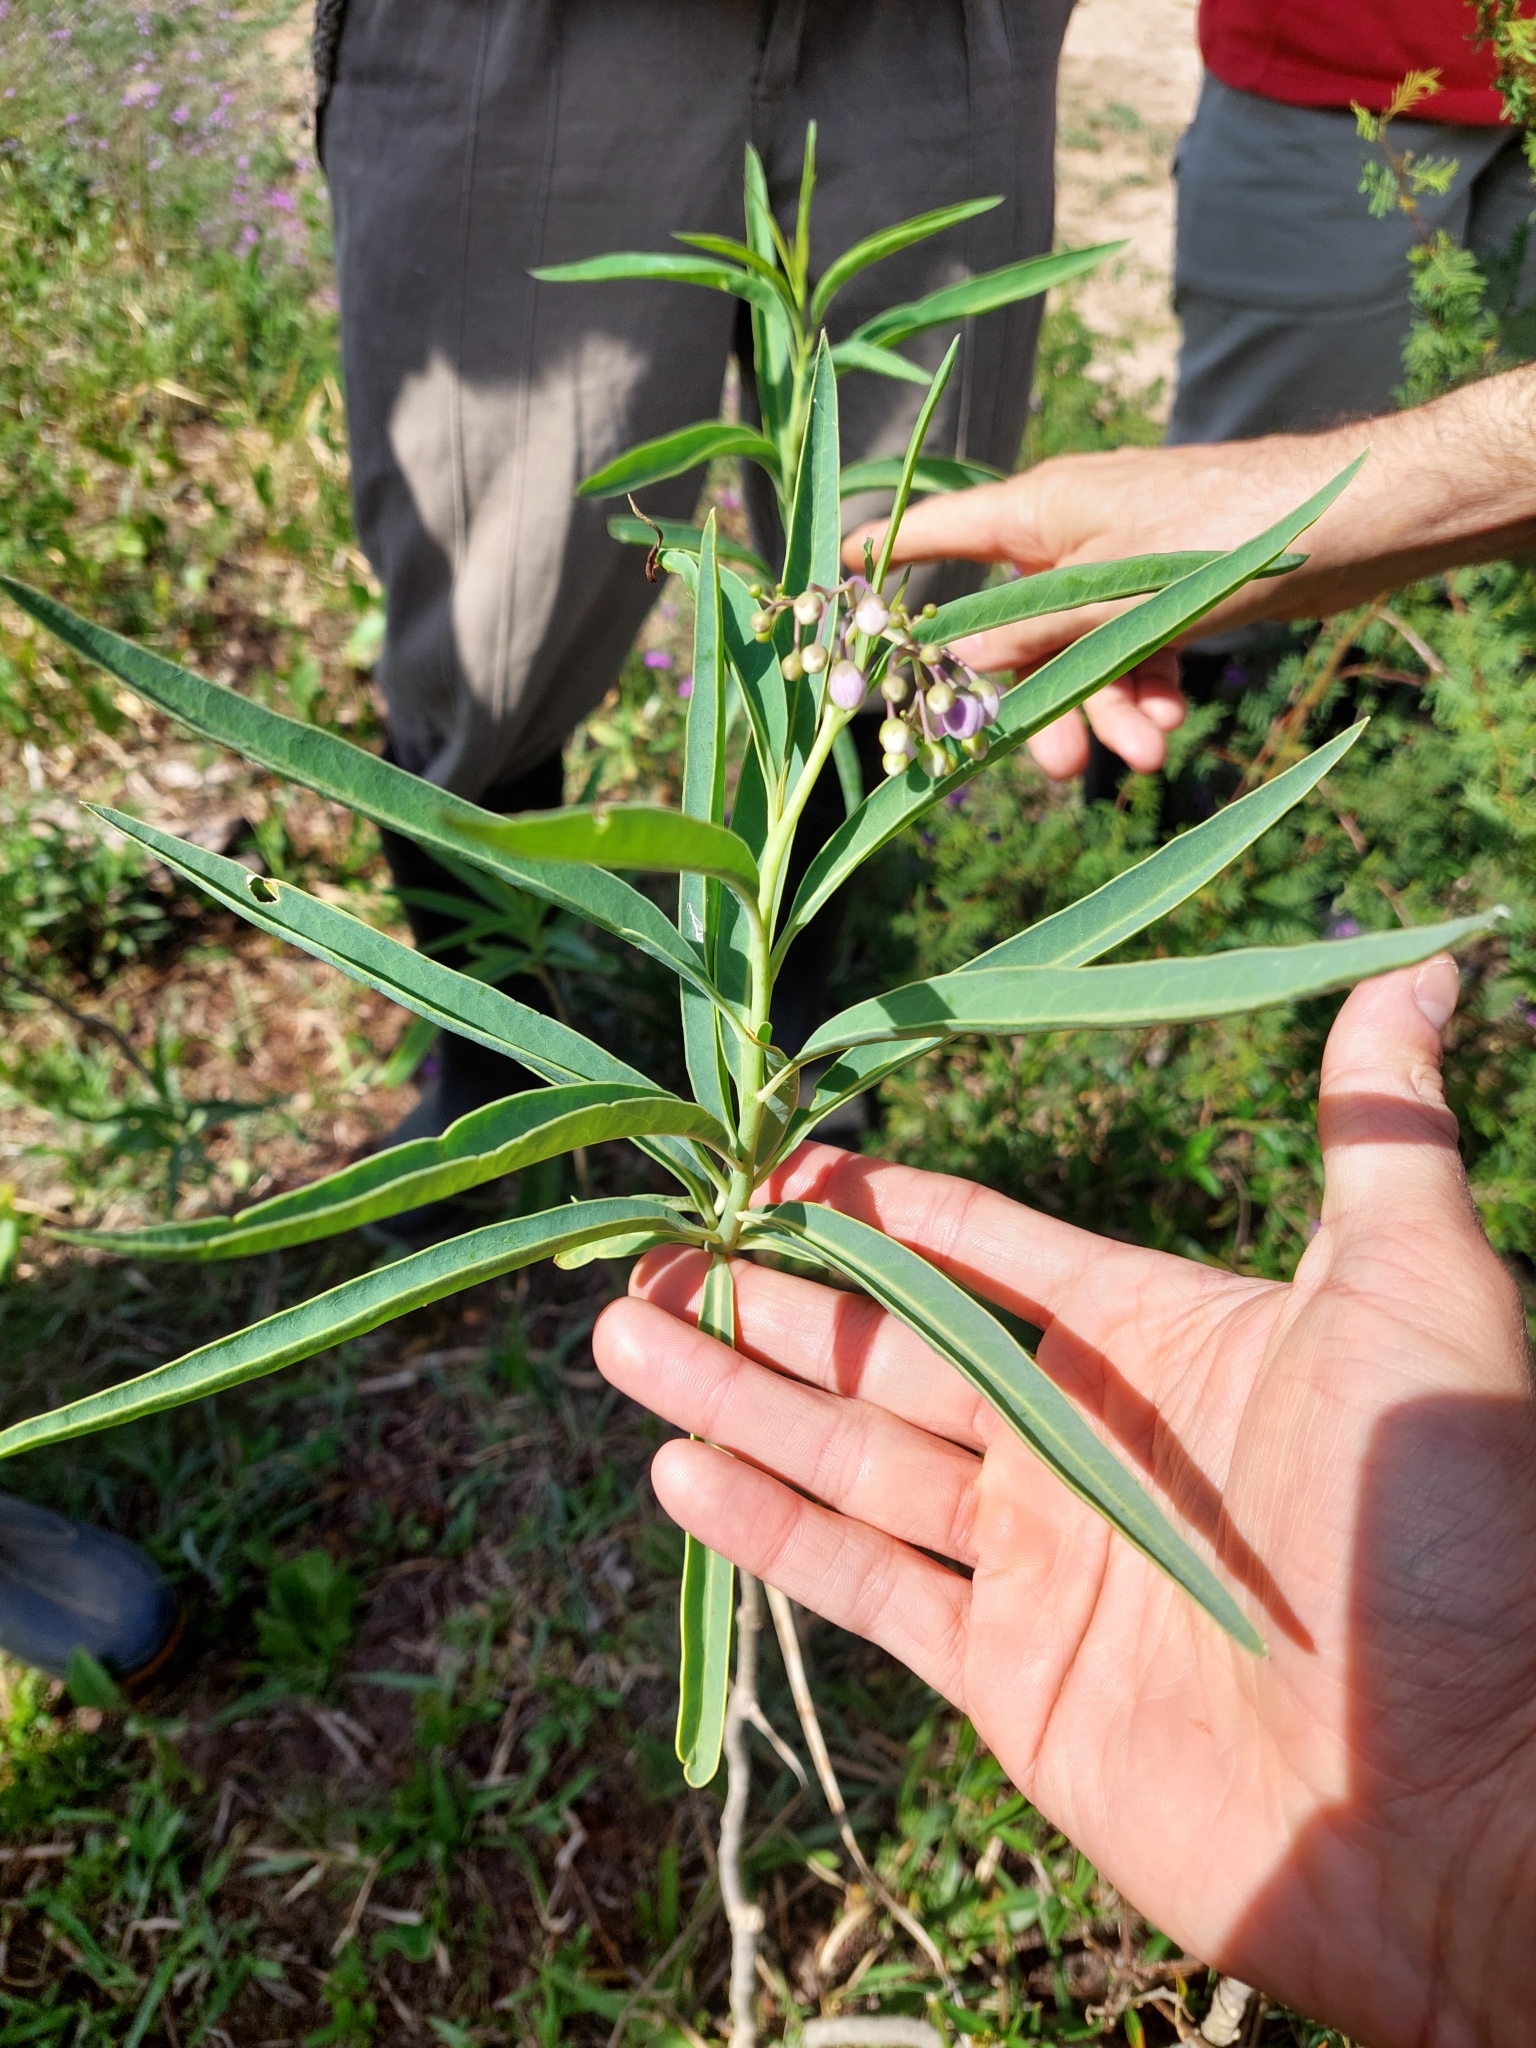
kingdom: Plantae
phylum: Tracheophyta
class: Magnoliopsida
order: Solanales
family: Solanaceae
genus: Solanum
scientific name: Solanum glaucophyllum
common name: Waxyleaf nightshade
